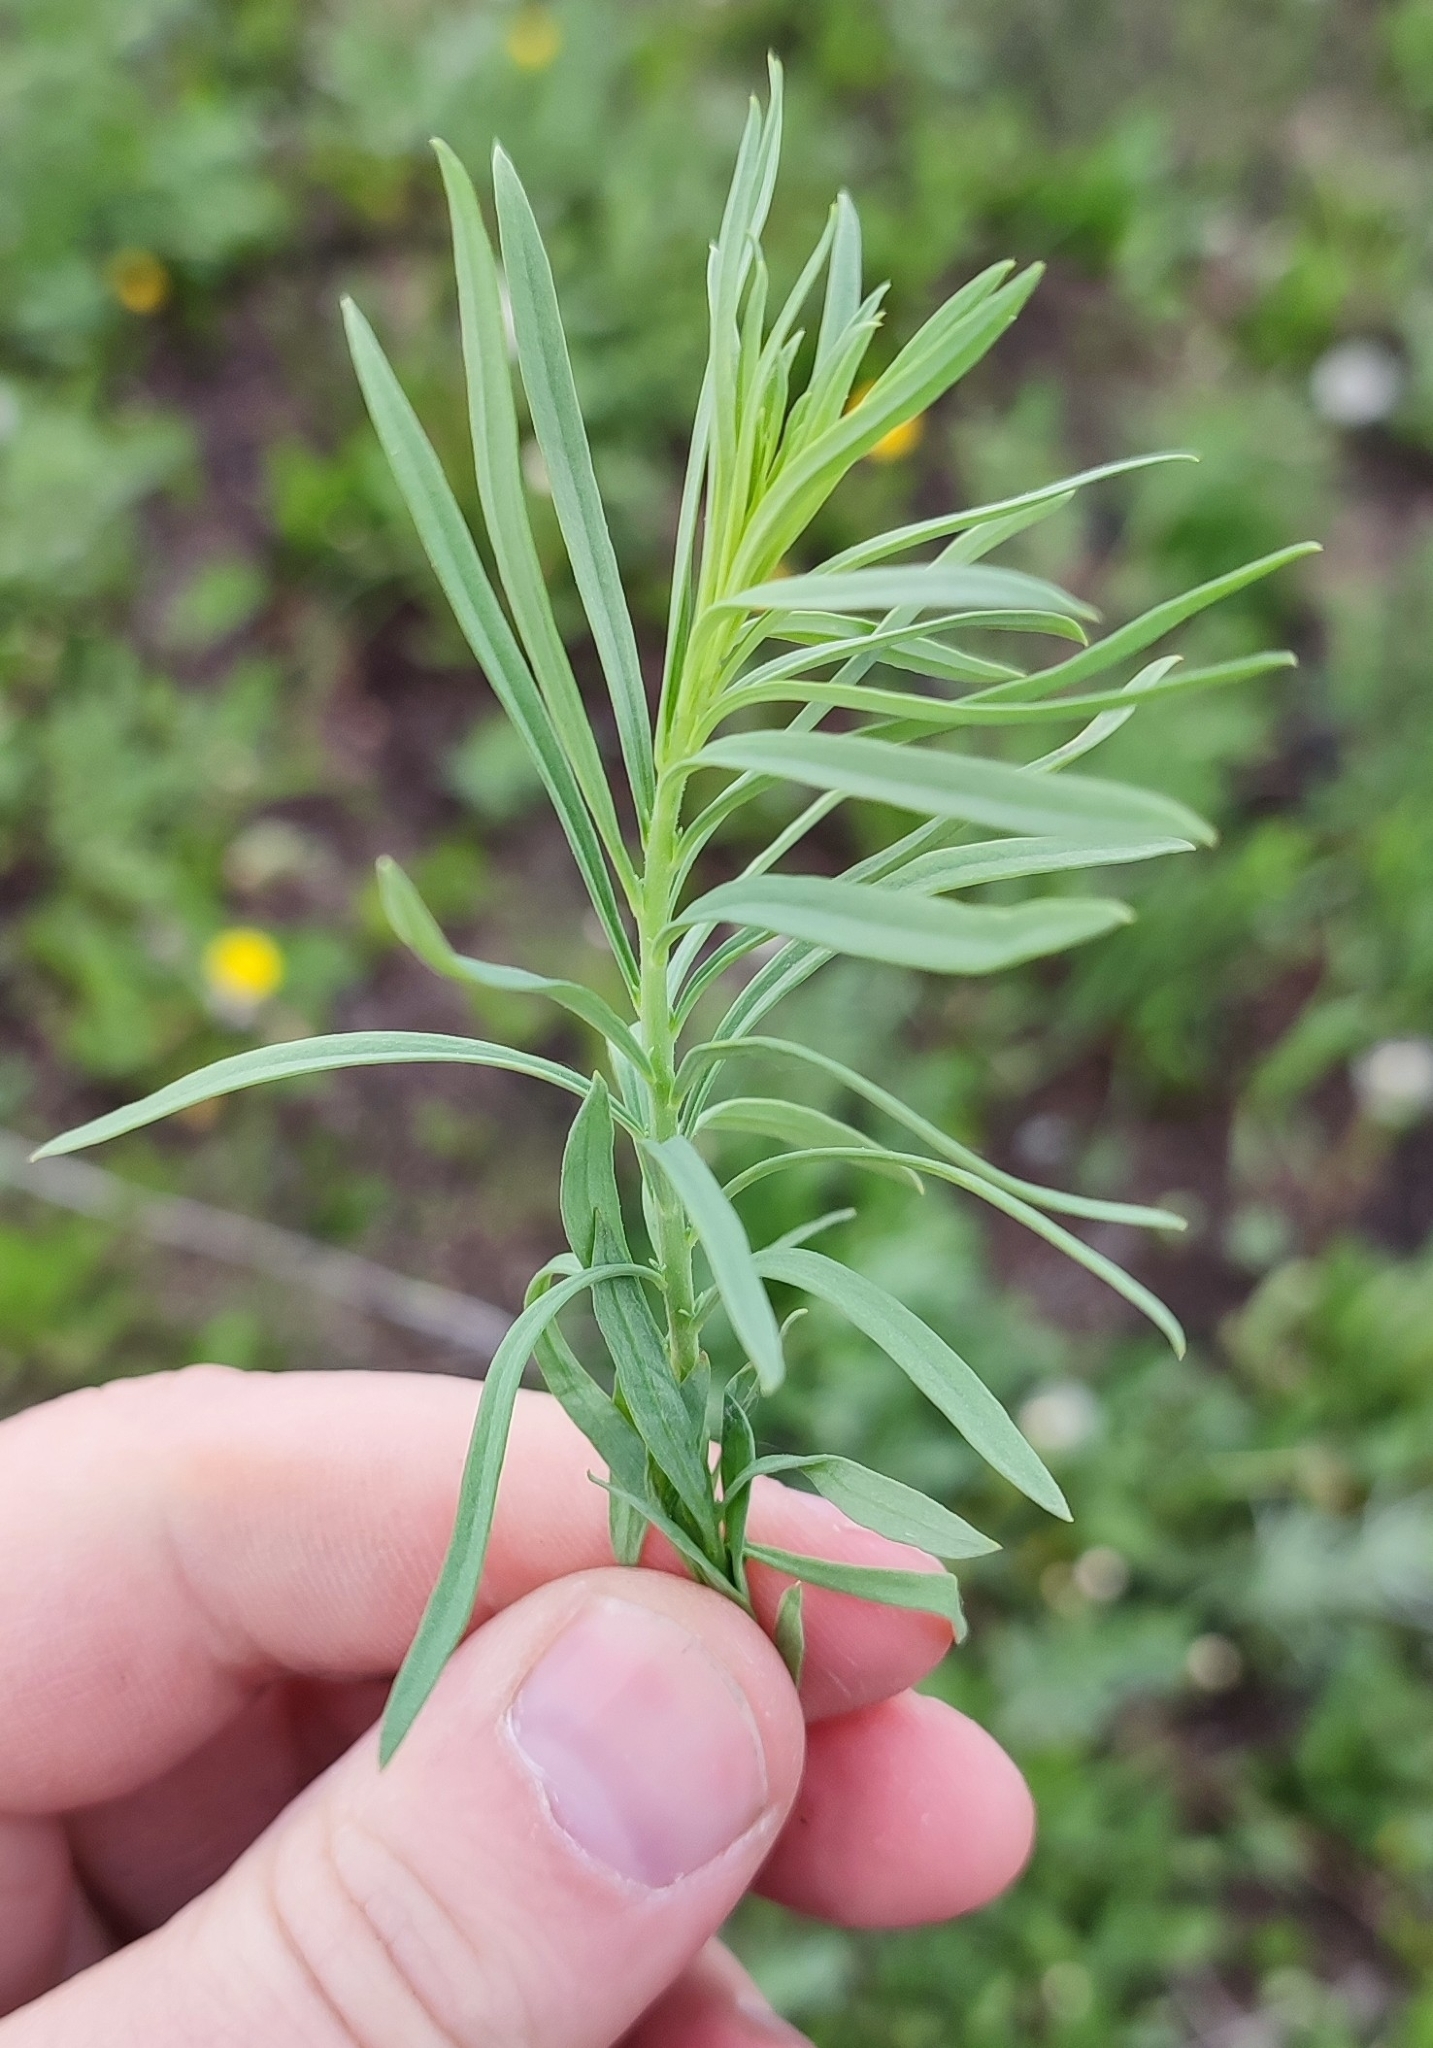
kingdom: Plantae
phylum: Tracheophyta
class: Magnoliopsida
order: Lamiales
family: Plantaginaceae
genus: Linaria
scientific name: Linaria vulgaris
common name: Butter and eggs
